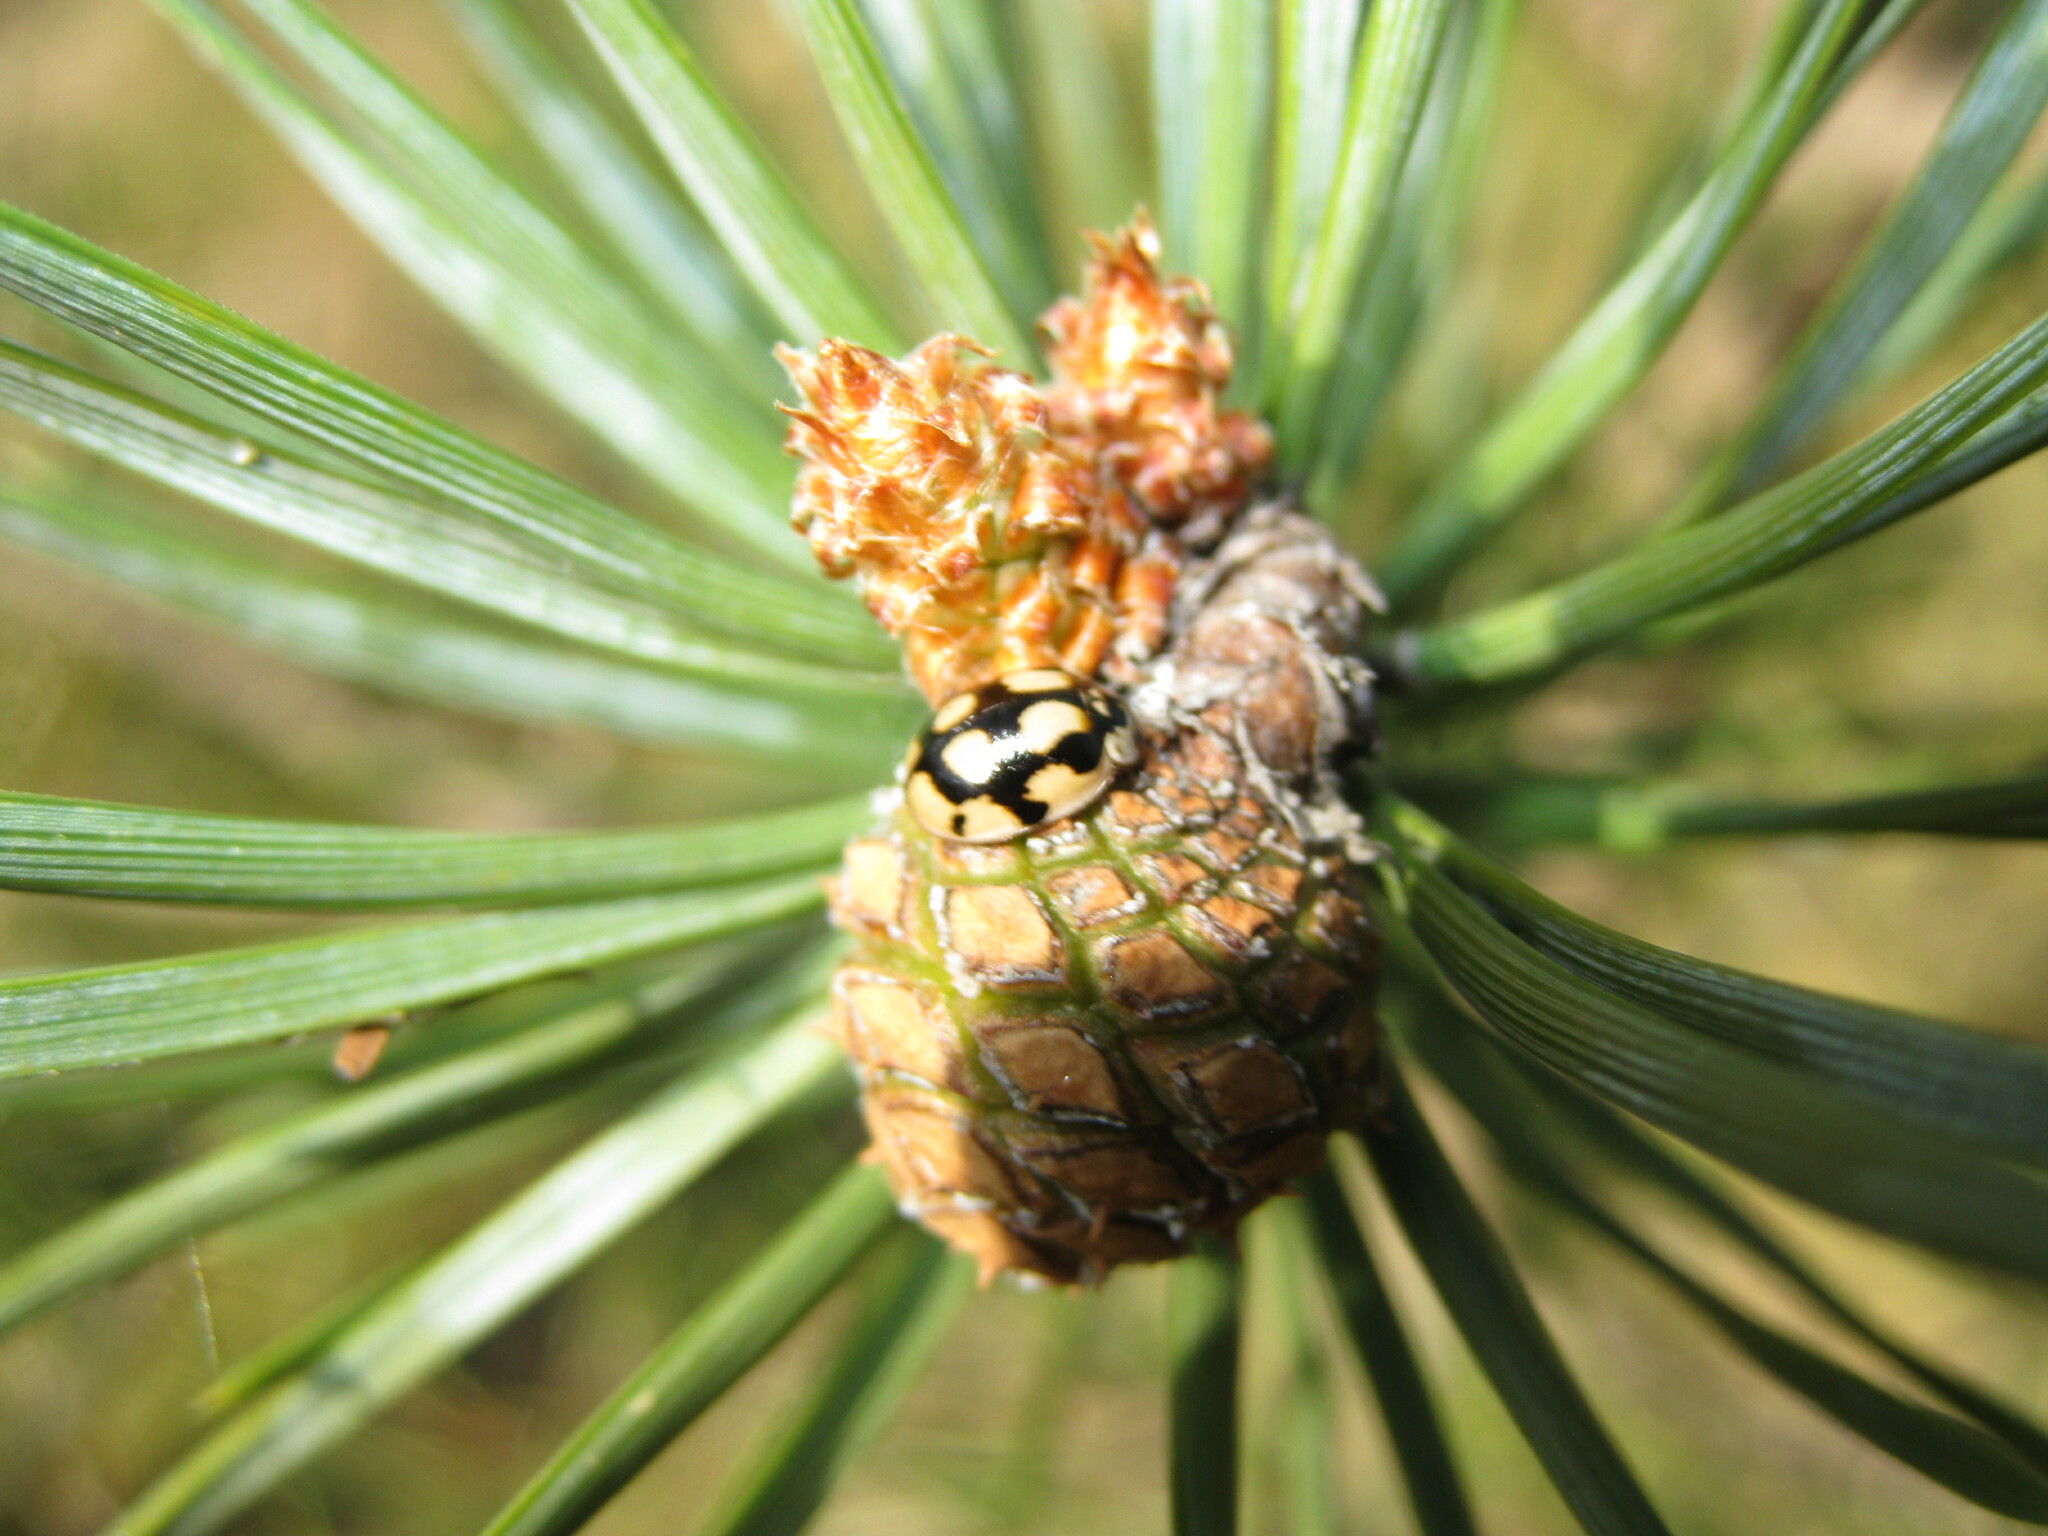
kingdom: Animalia
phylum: Arthropoda
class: Insecta
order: Coleoptera
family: Coccinellidae
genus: Adalia
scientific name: Adalia decempunctata
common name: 10-spot ladybird
